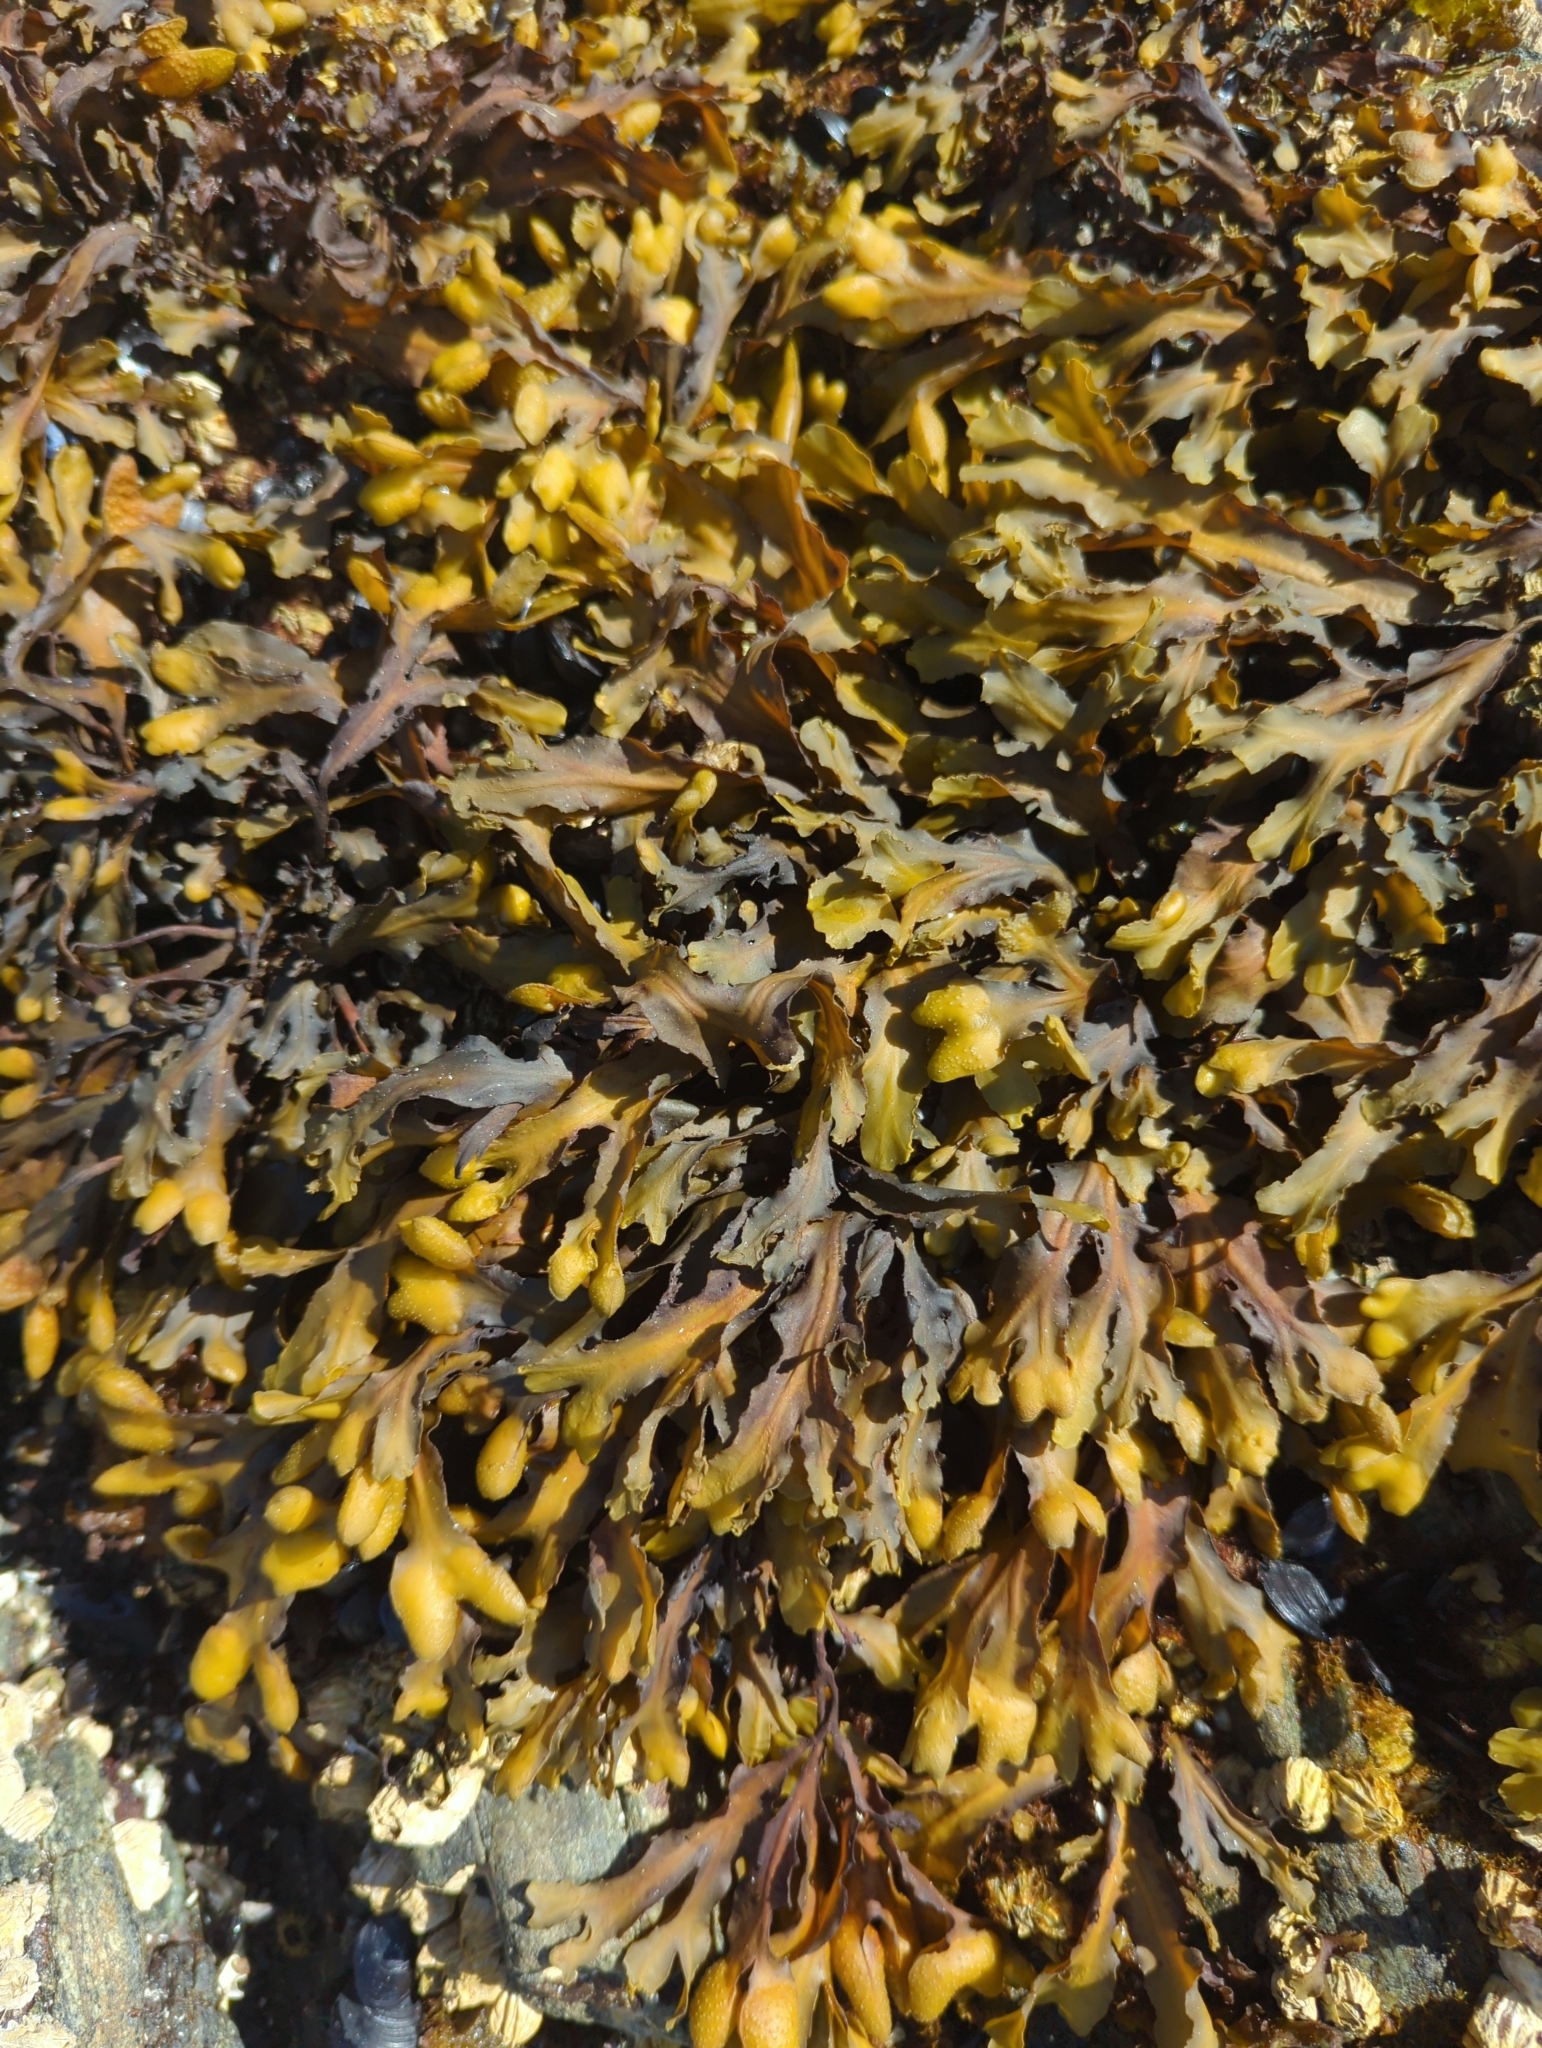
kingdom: Chromista
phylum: Ochrophyta
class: Phaeophyceae
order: Fucales
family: Fucaceae
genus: Fucus
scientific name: Fucus distichus
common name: Rockweed
